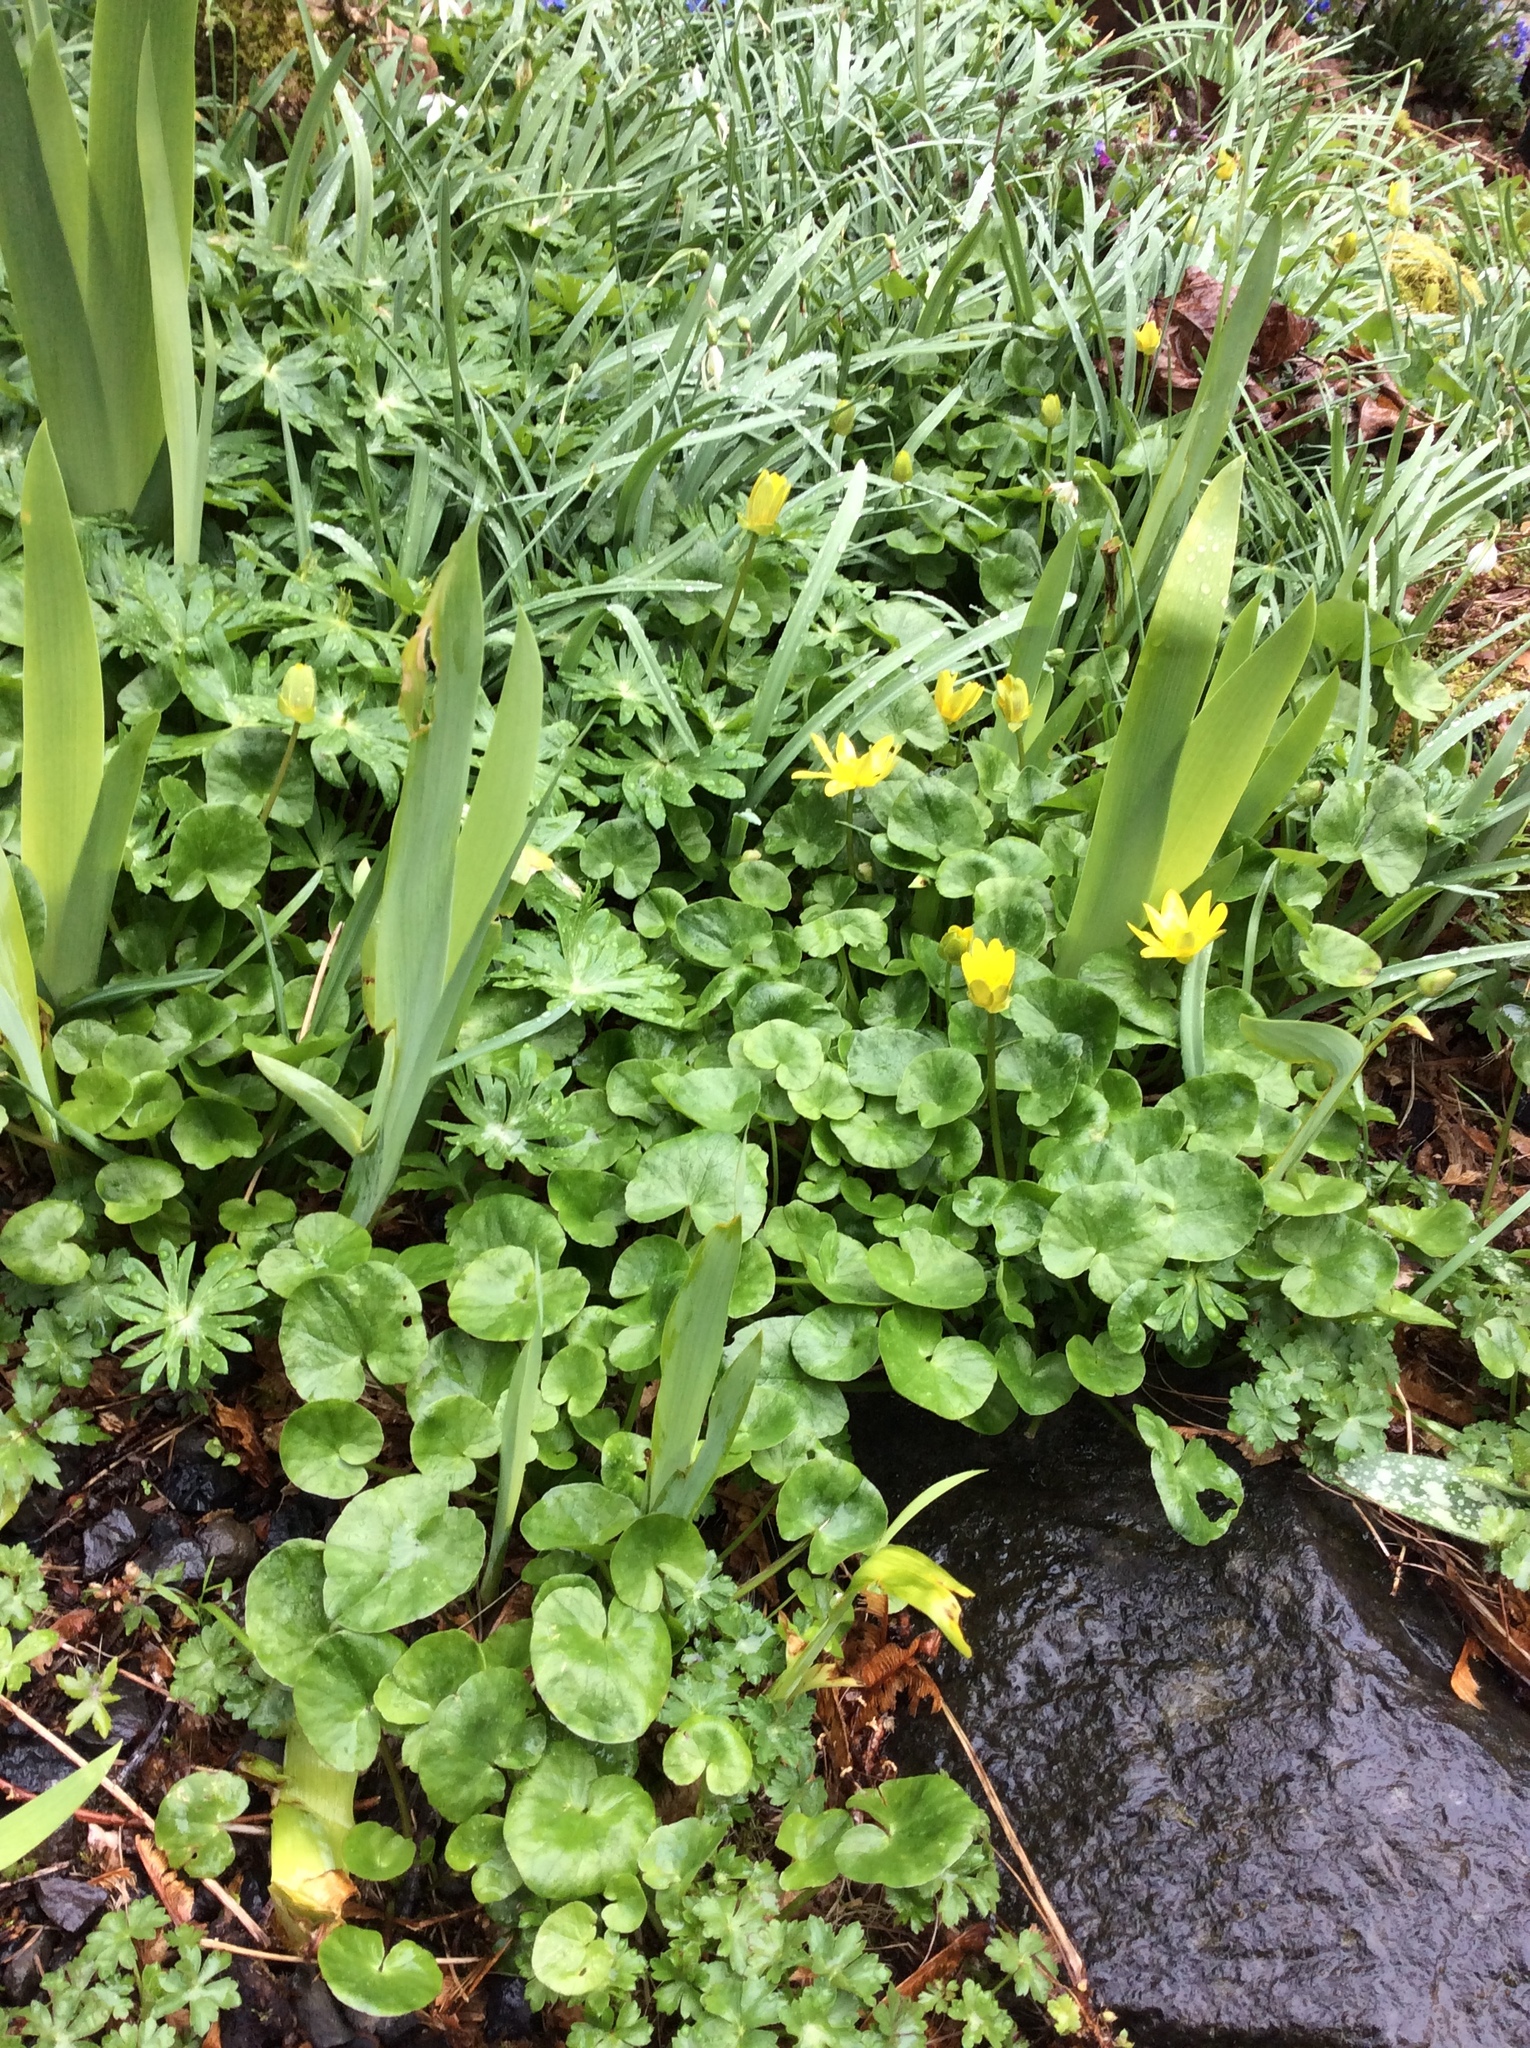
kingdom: Plantae
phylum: Tracheophyta
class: Magnoliopsida
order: Ranunculales
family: Ranunculaceae
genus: Ficaria
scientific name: Ficaria verna
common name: Lesser celandine
